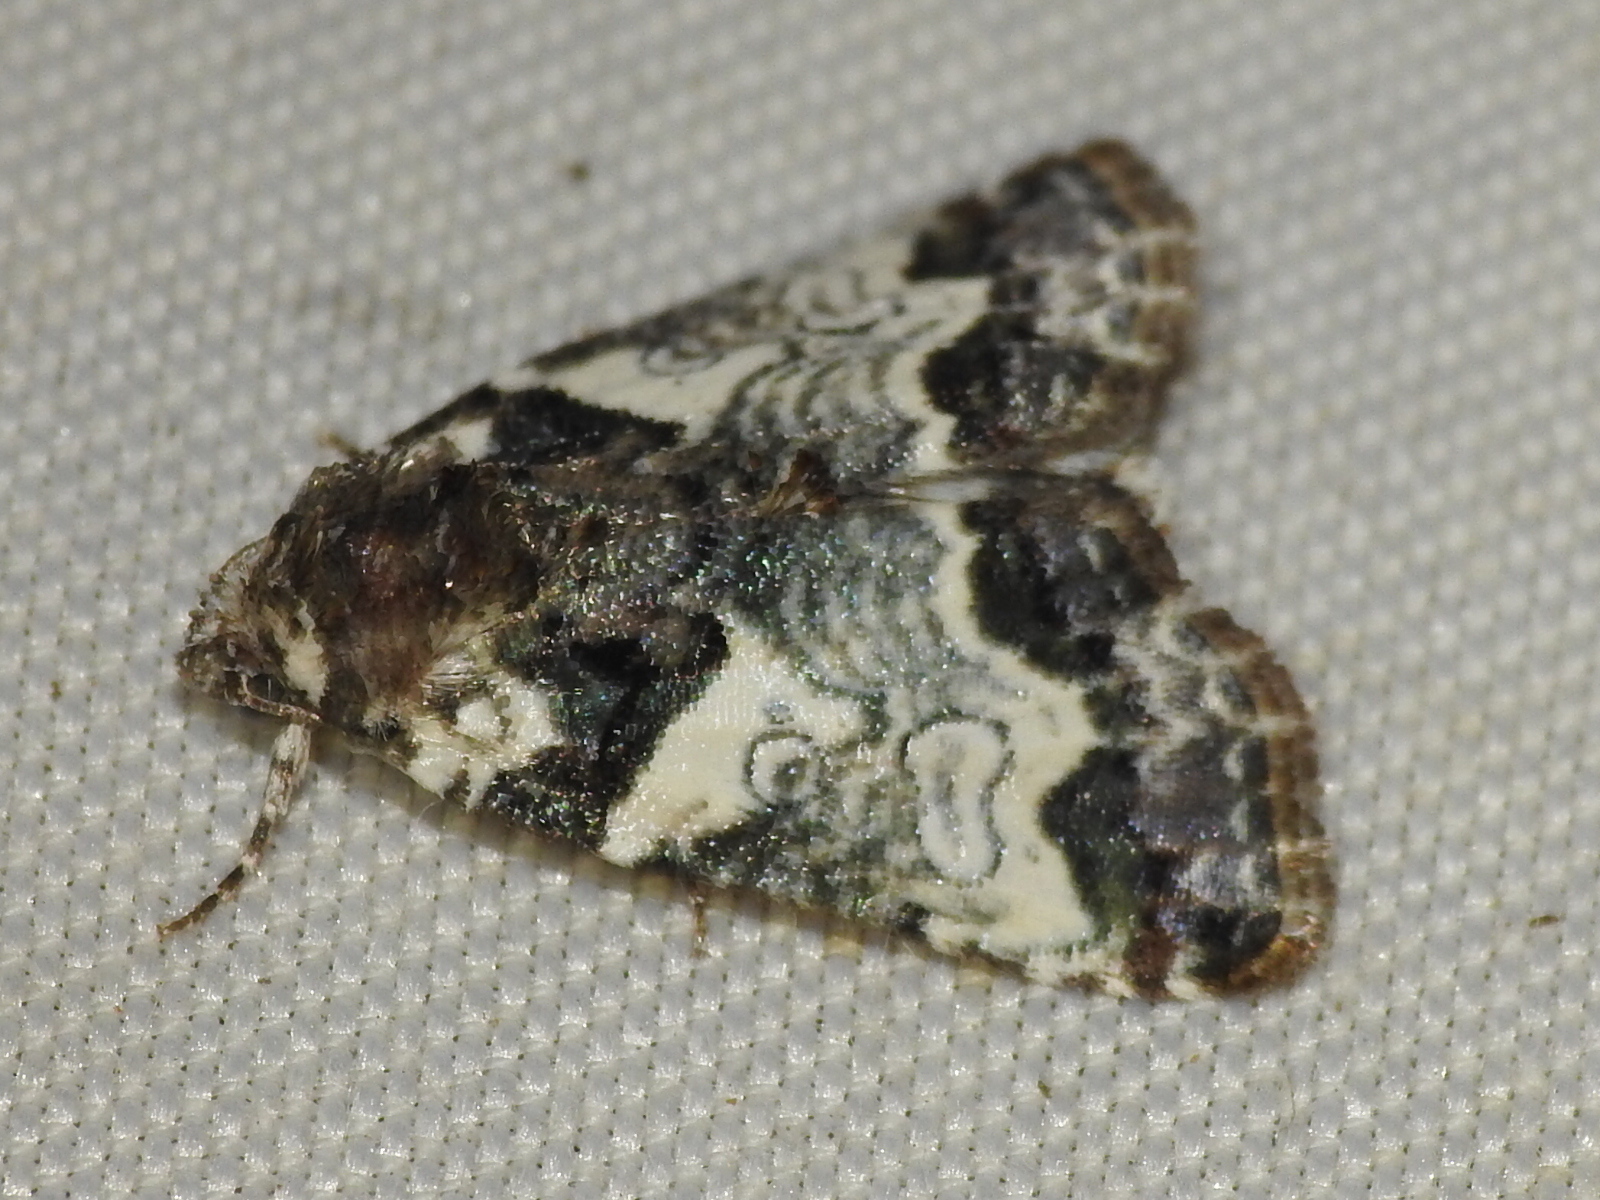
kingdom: Animalia
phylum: Arthropoda
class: Insecta
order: Lepidoptera
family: Noctuidae
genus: Cerma
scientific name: Cerma cerintha
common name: Tufted bird-dropping moth
